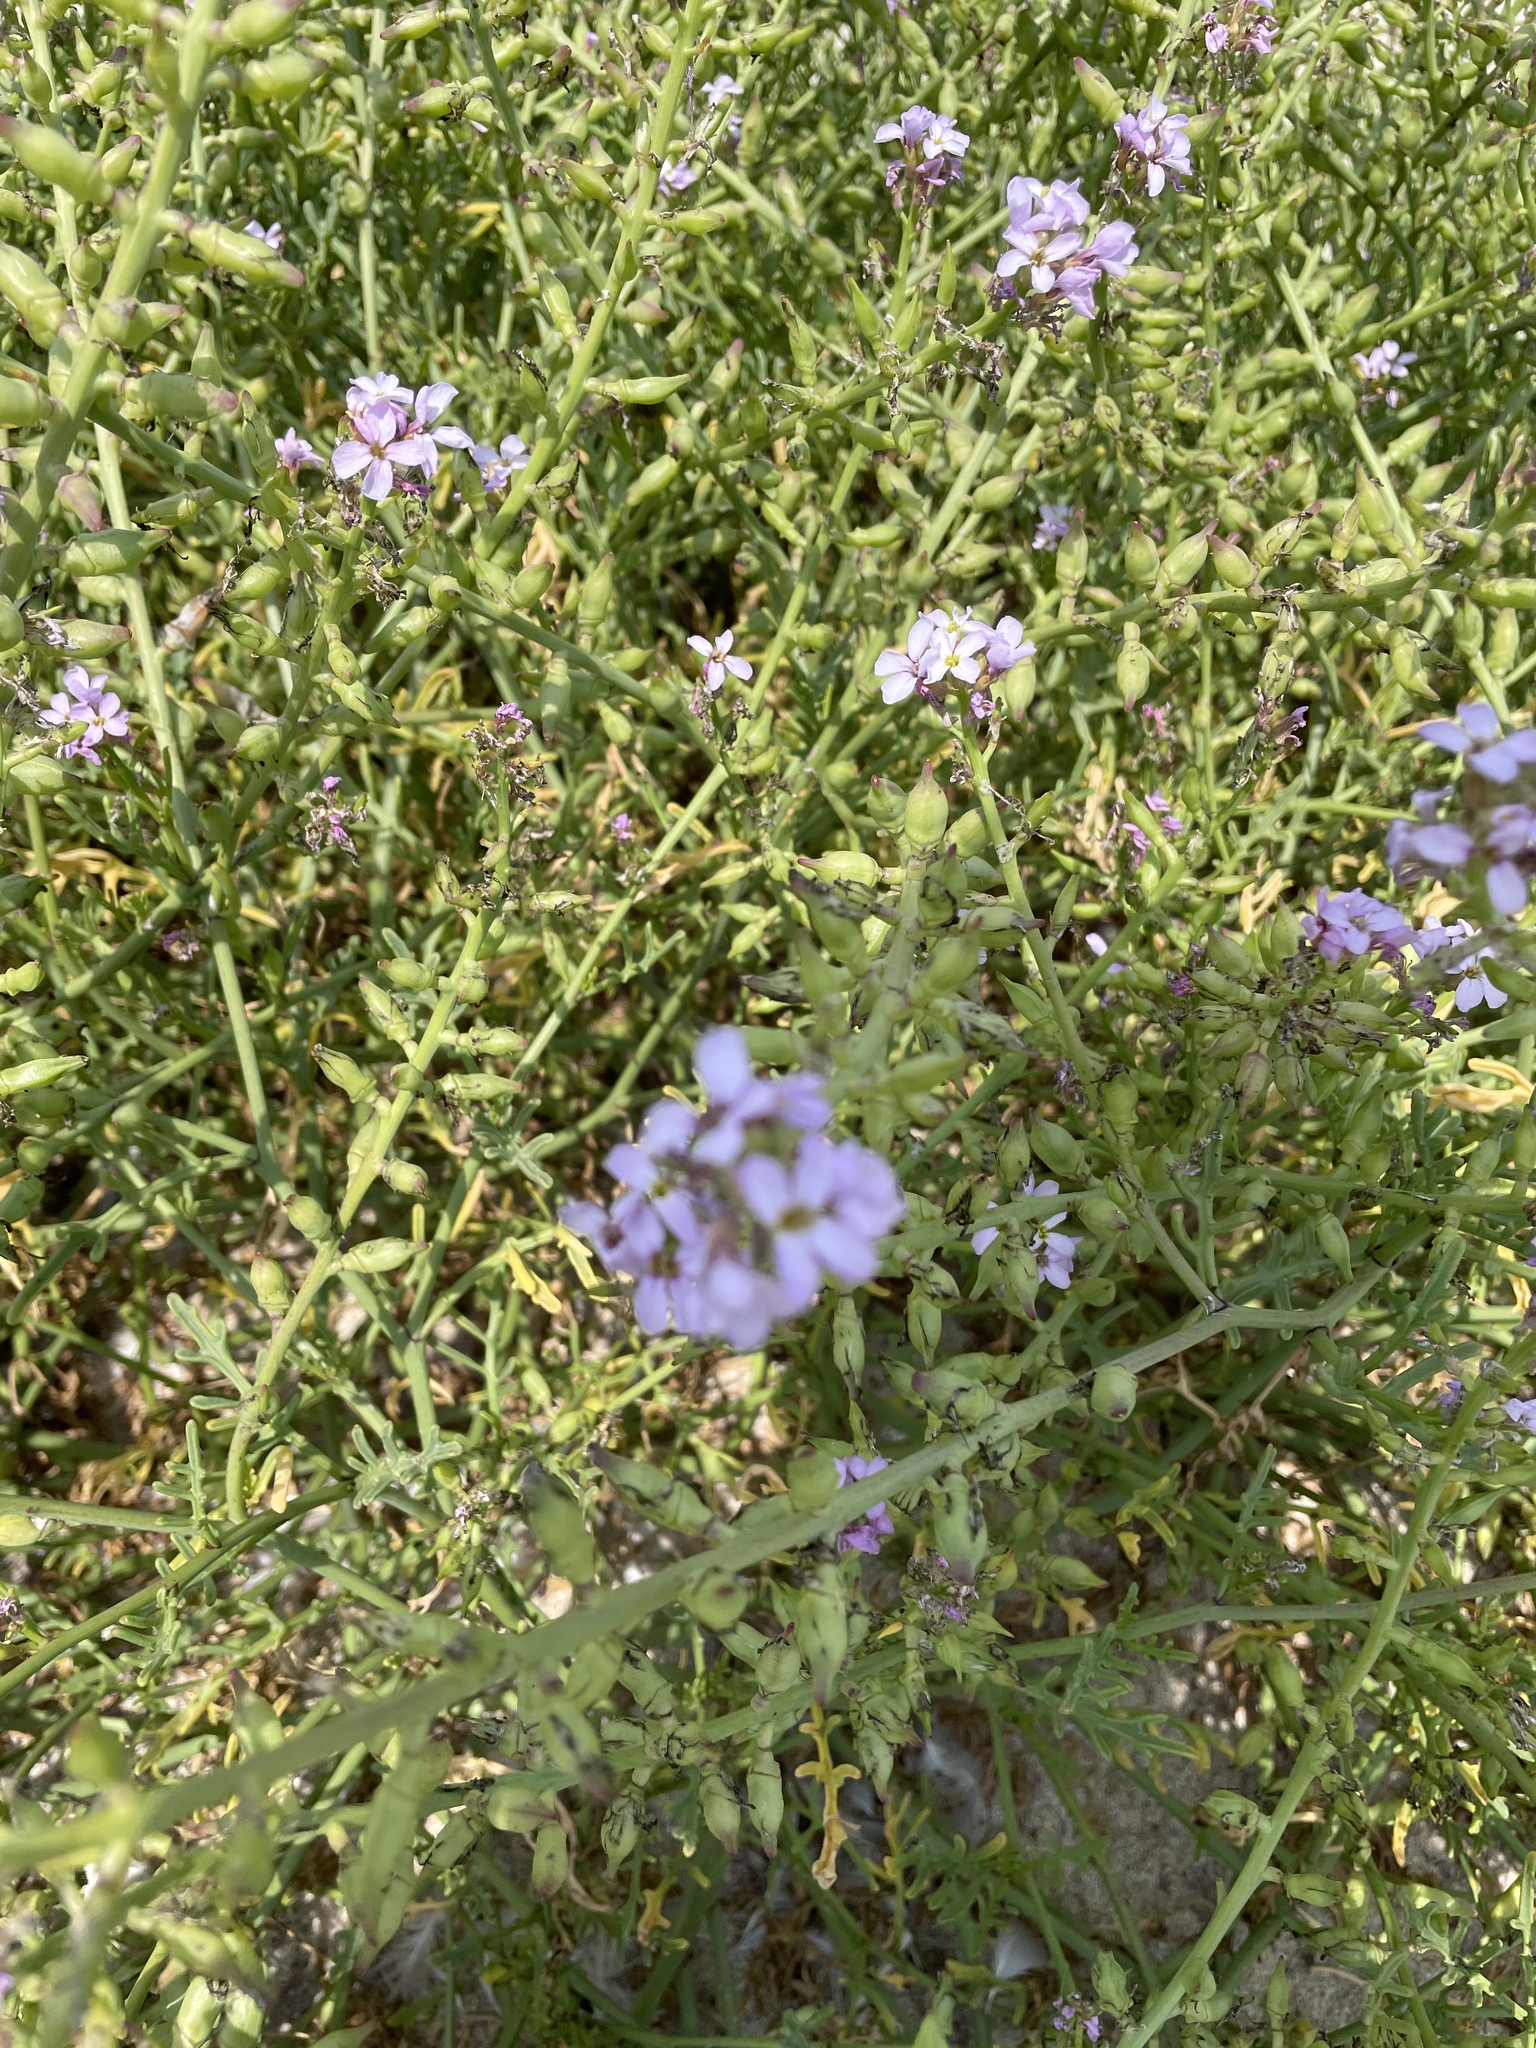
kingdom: Plantae
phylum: Tracheophyta
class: Magnoliopsida
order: Brassicales
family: Brassicaceae
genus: Cakile
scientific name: Cakile maritima
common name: Sea rocket
